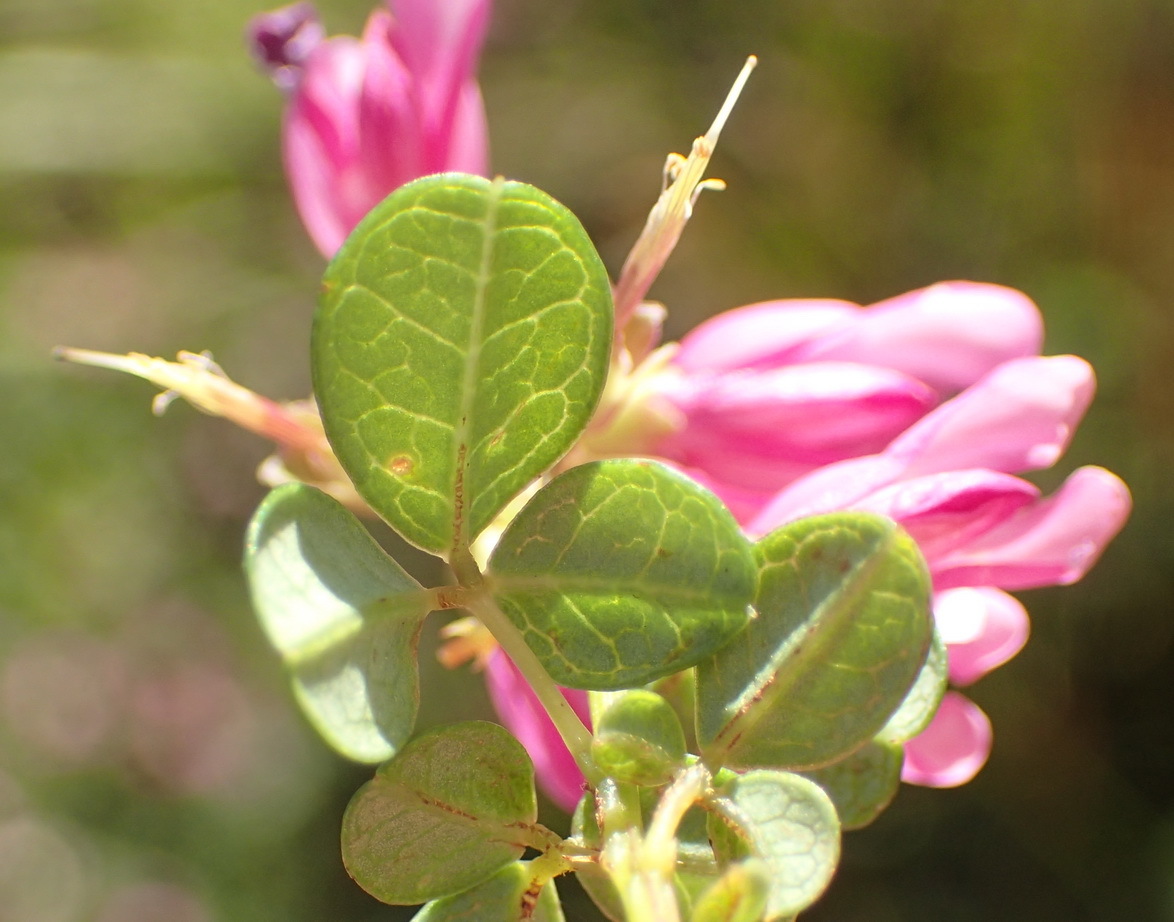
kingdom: Plantae
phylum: Tracheophyta
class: Magnoliopsida
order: Fabales
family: Fabaceae
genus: Hypocalyptus
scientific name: Hypocalyptus oxalidifolius
